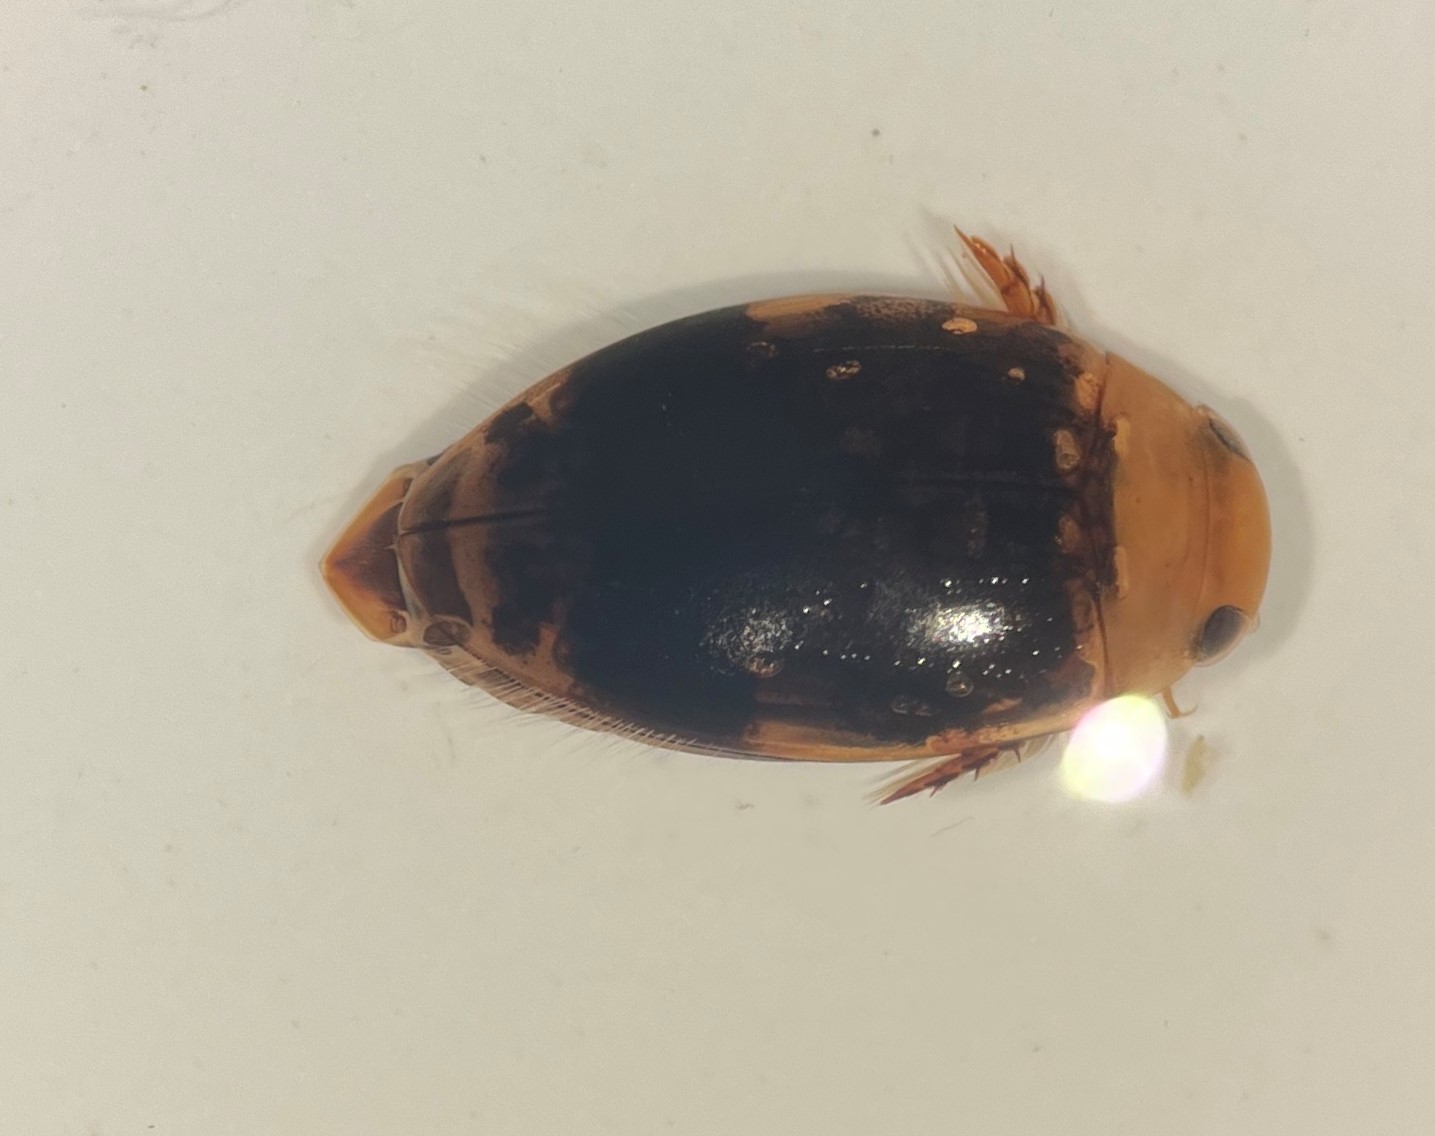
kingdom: Animalia
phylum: Arthropoda
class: Insecta
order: Coleoptera
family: Dytiscidae
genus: Laccophilus
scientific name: Laccophilus fasciatus
